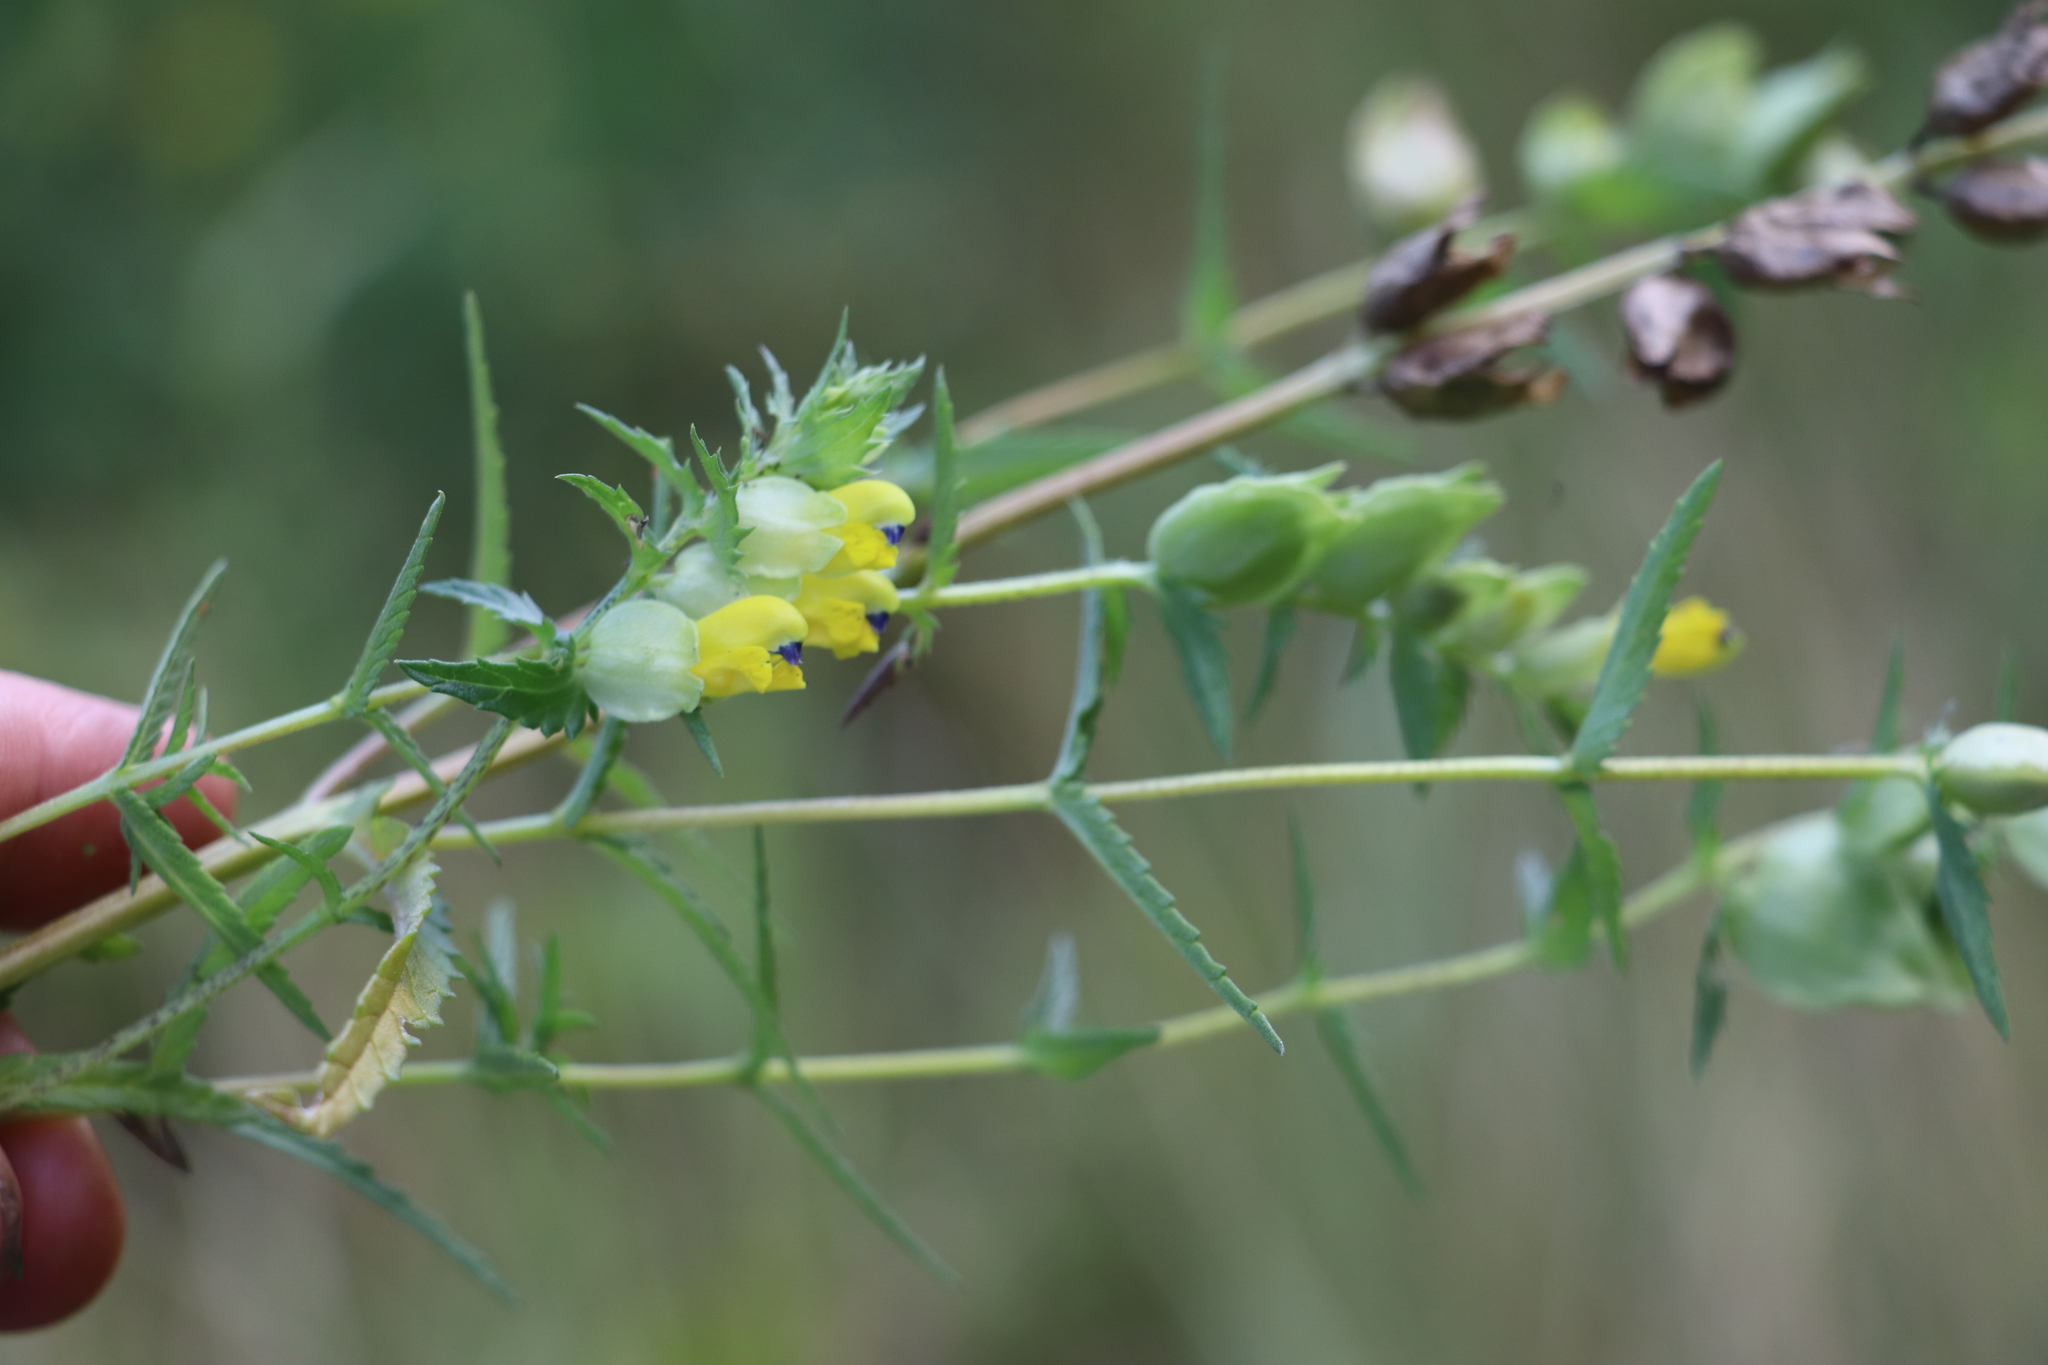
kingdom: Plantae
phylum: Tracheophyta
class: Magnoliopsida
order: Lamiales
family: Orobanchaceae
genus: Rhinanthus
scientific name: Rhinanthus serotinus
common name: Late-flowering yellow rattle
